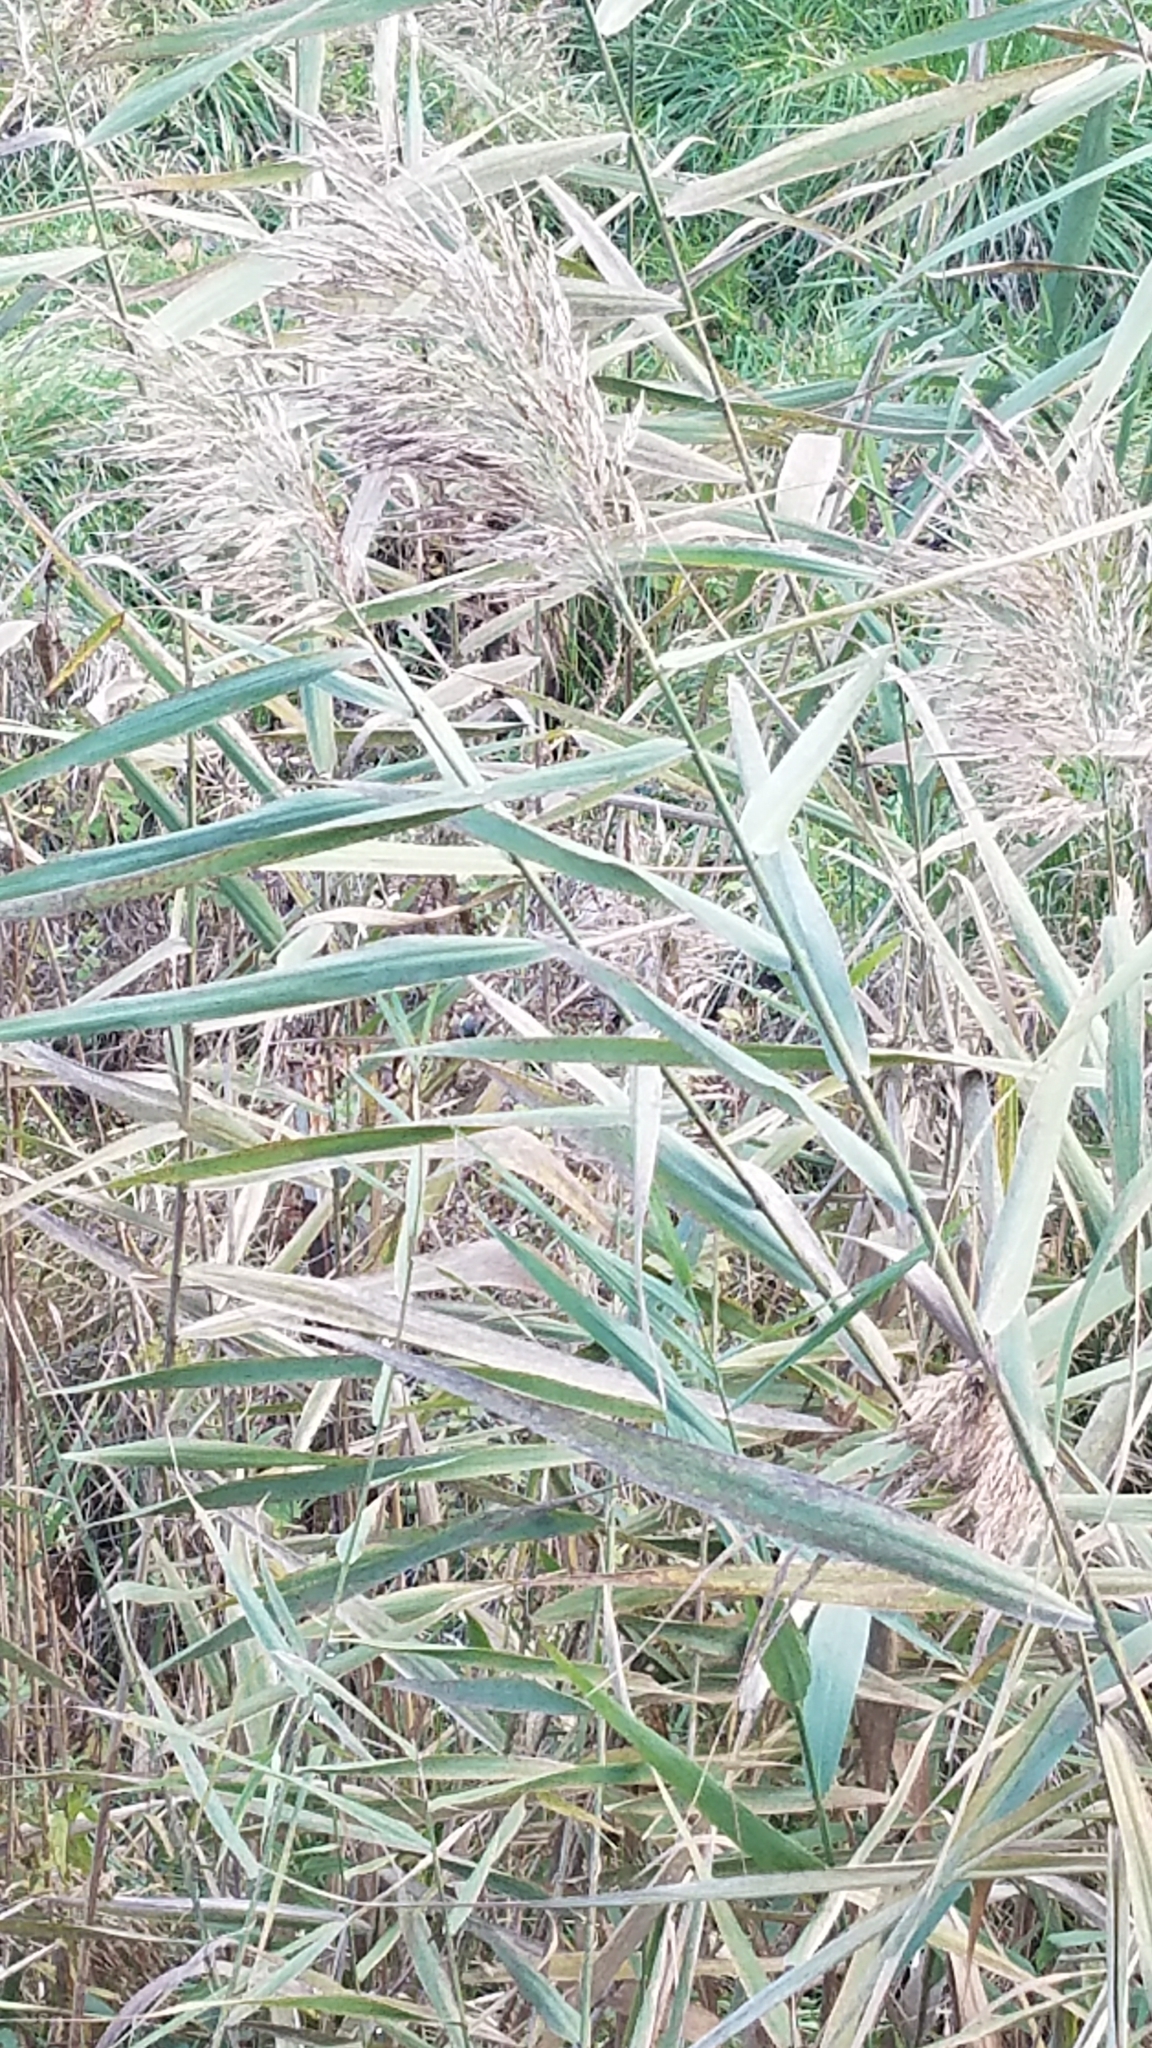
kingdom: Plantae
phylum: Tracheophyta
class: Liliopsida
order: Poales
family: Poaceae
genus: Phragmites
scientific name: Phragmites australis
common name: Common reed
